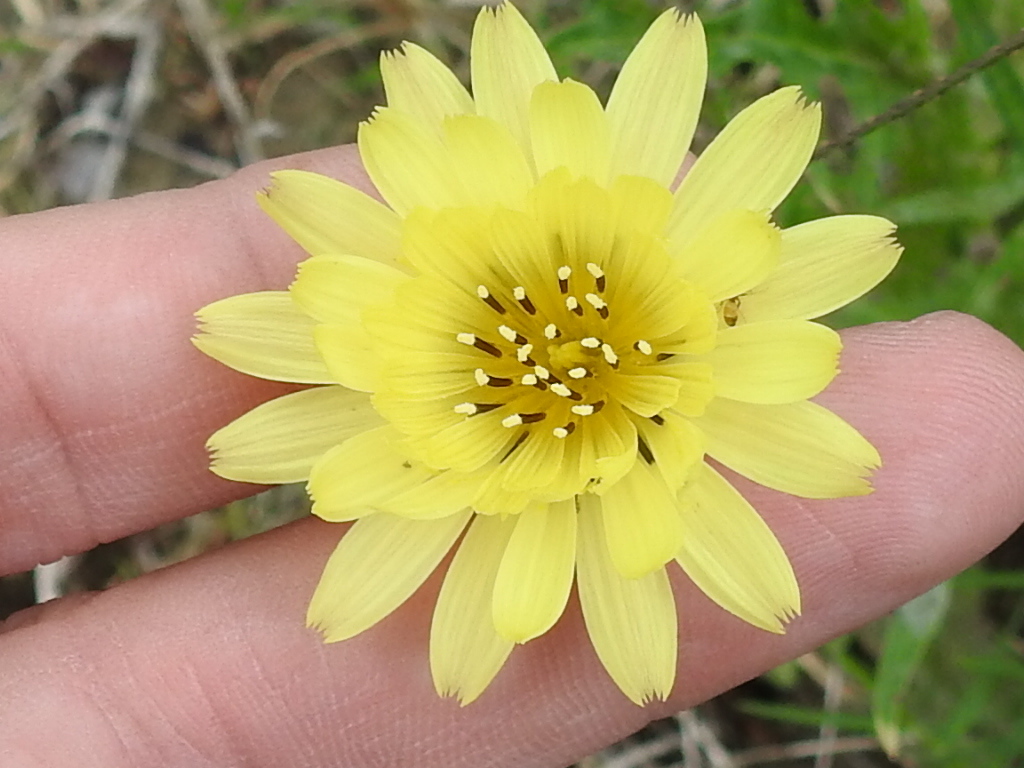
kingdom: Plantae
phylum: Tracheophyta
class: Magnoliopsida
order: Asterales
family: Asteraceae
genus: Pyrrhopappus
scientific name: Pyrrhopappus pauciflorus
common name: Texas false dandelion
